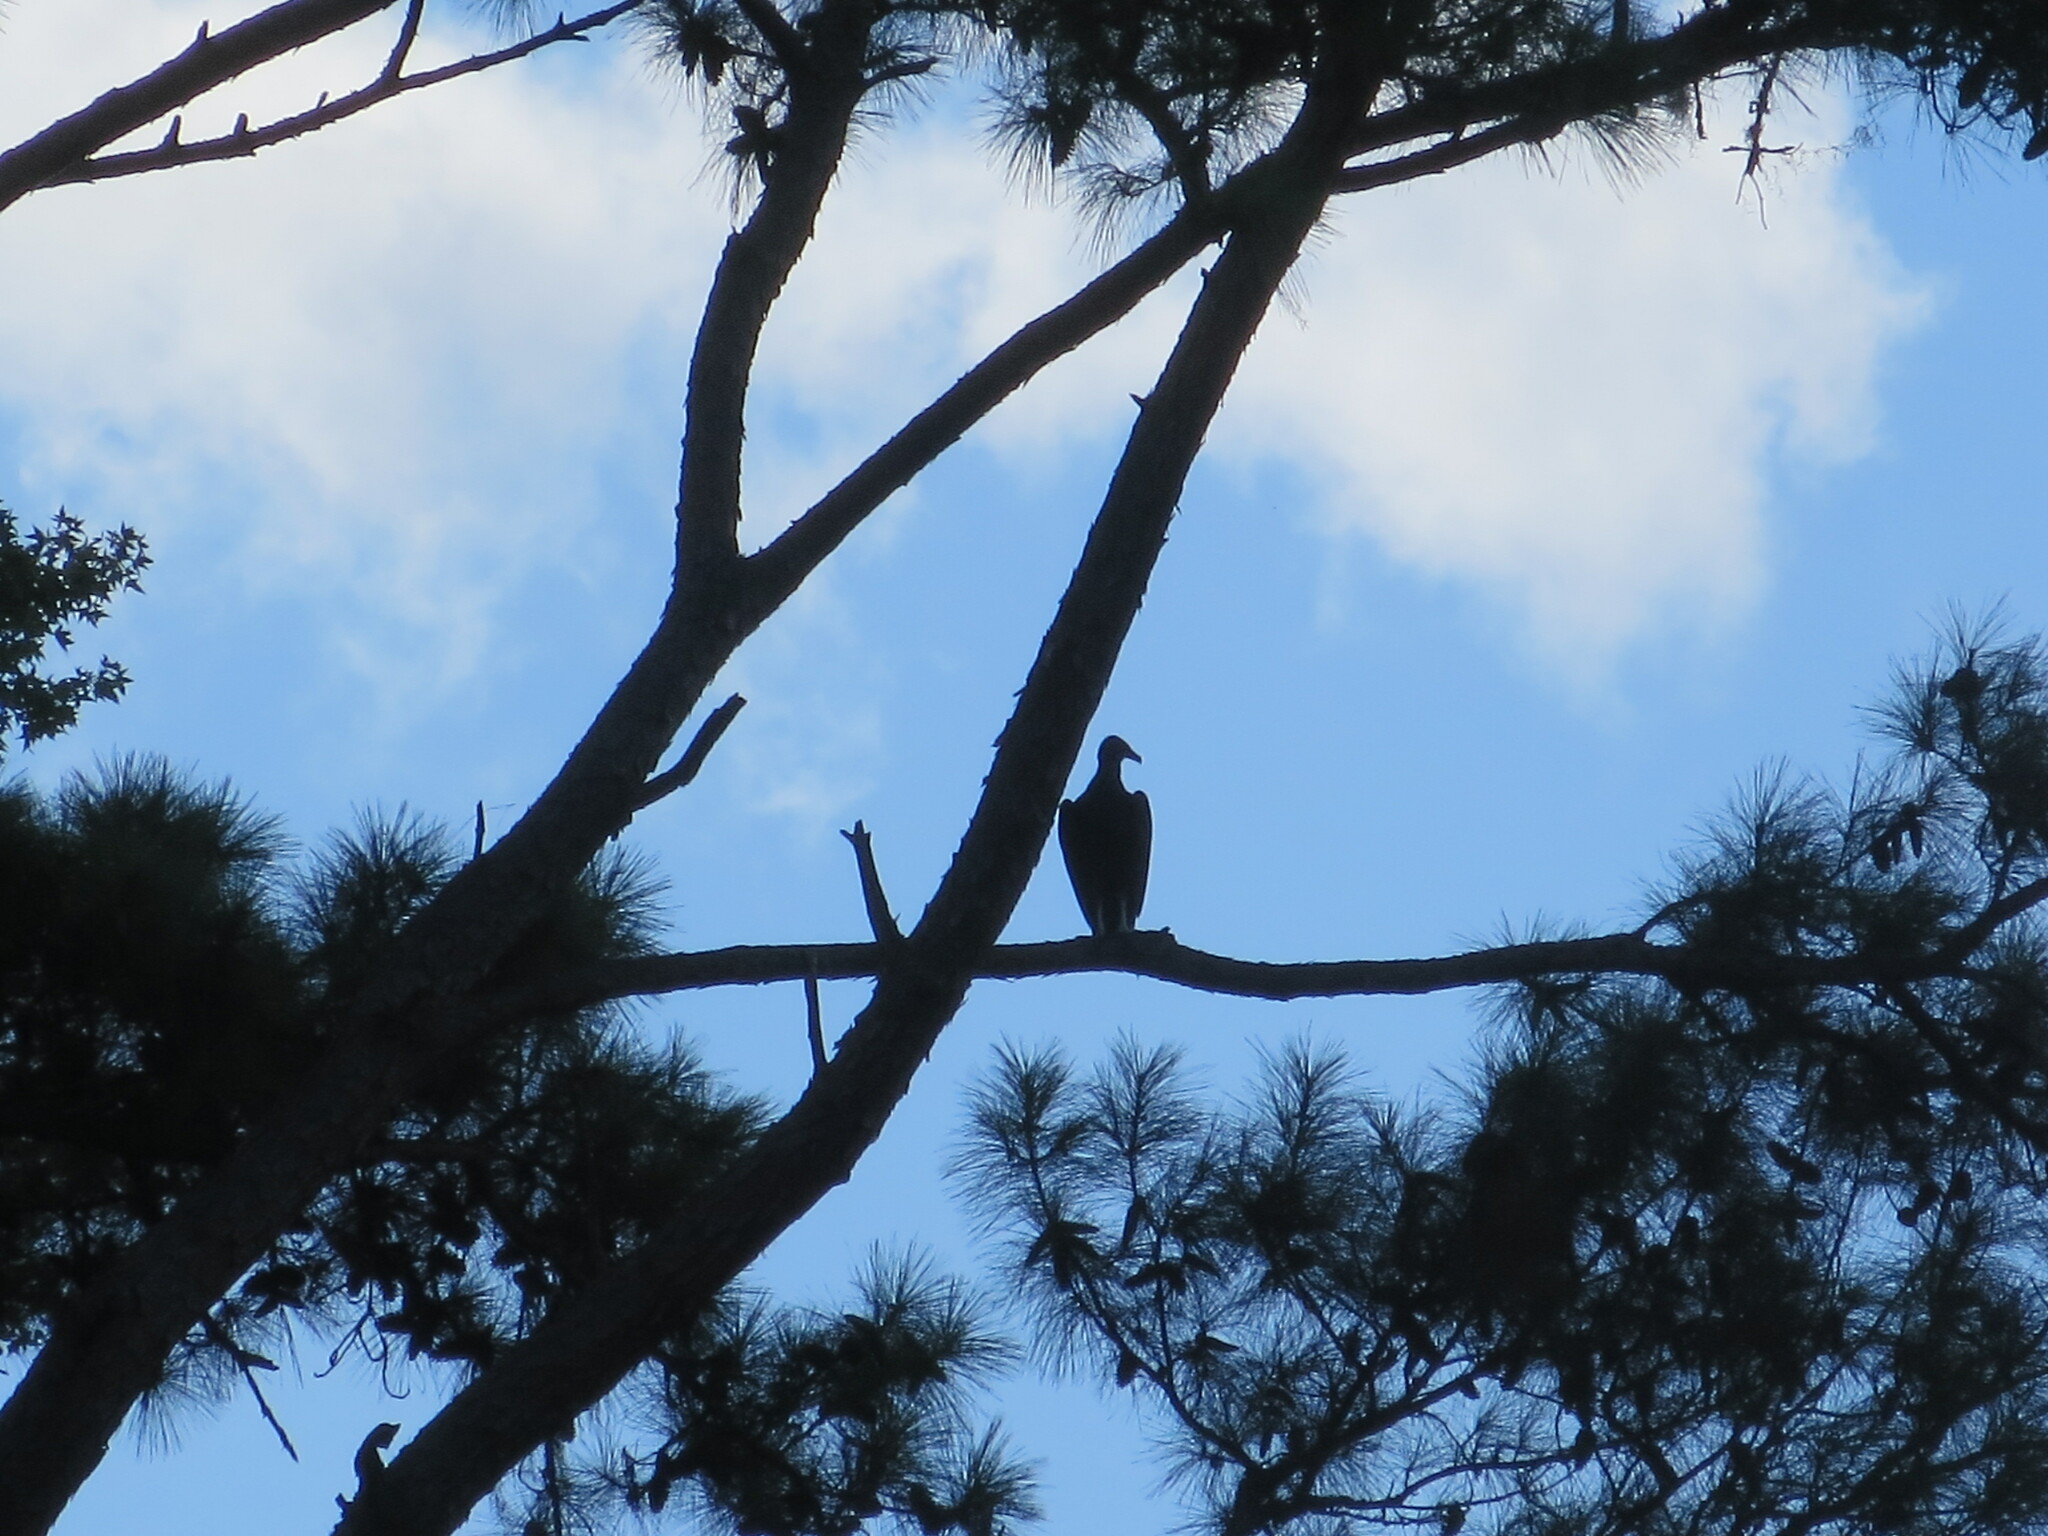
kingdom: Animalia
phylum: Chordata
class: Aves
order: Accipitriformes
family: Cathartidae
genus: Coragyps
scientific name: Coragyps atratus
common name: Black vulture
